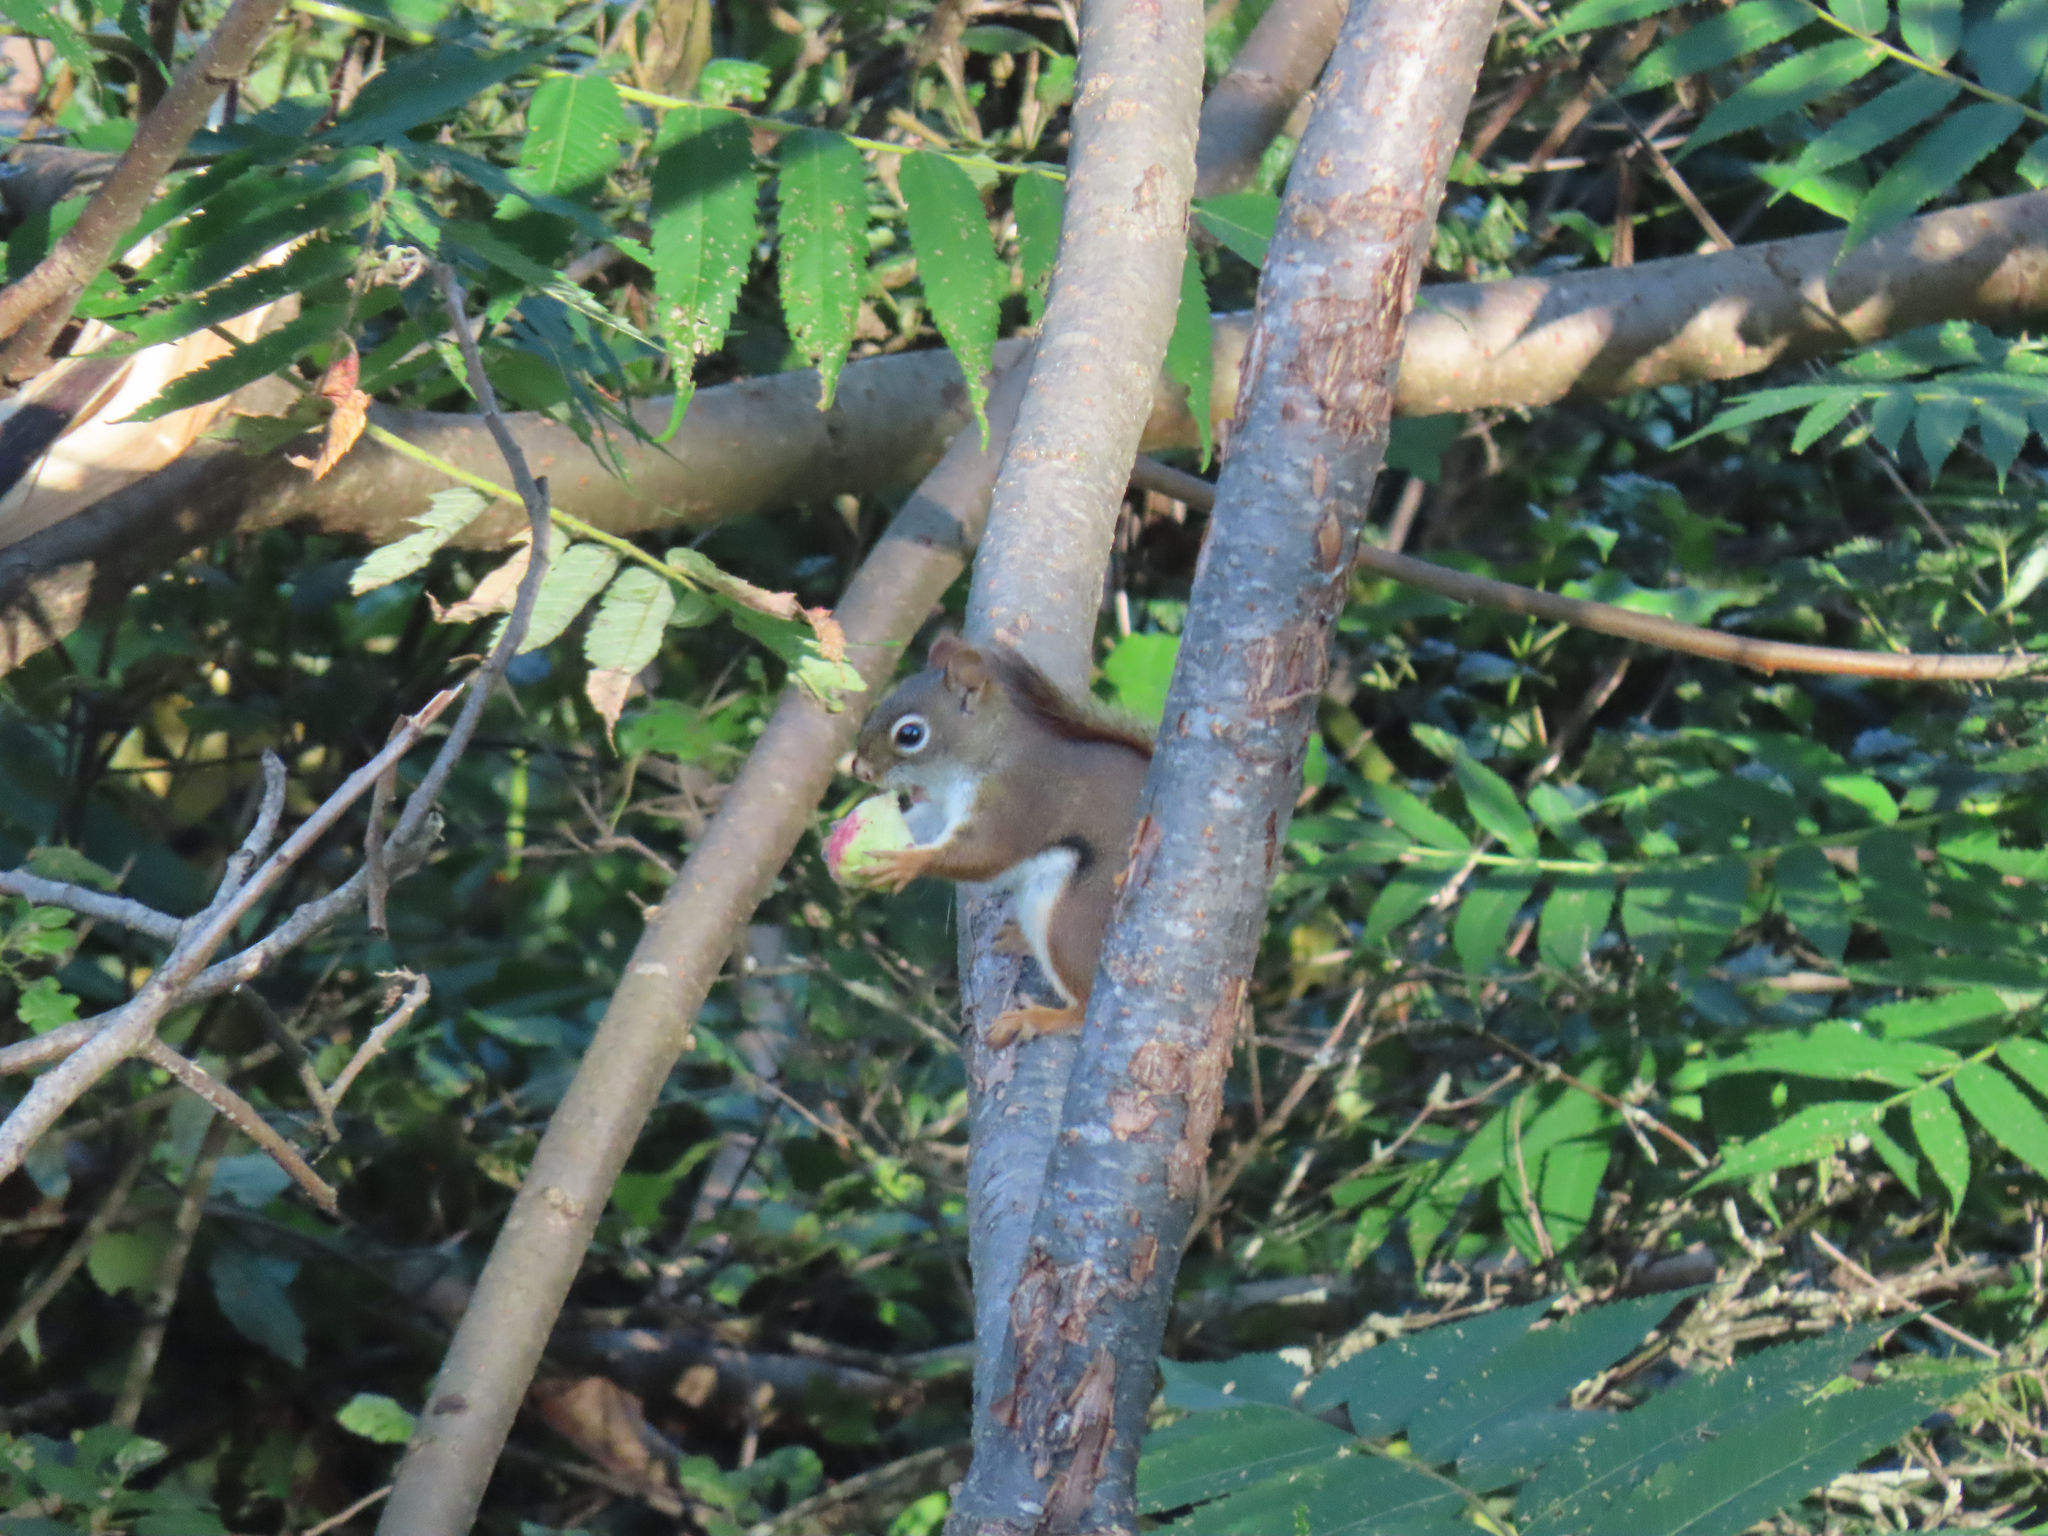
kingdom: Animalia
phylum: Chordata
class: Mammalia
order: Rodentia
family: Sciuridae
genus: Tamiasciurus
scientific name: Tamiasciurus hudsonicus
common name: Red squirrel
